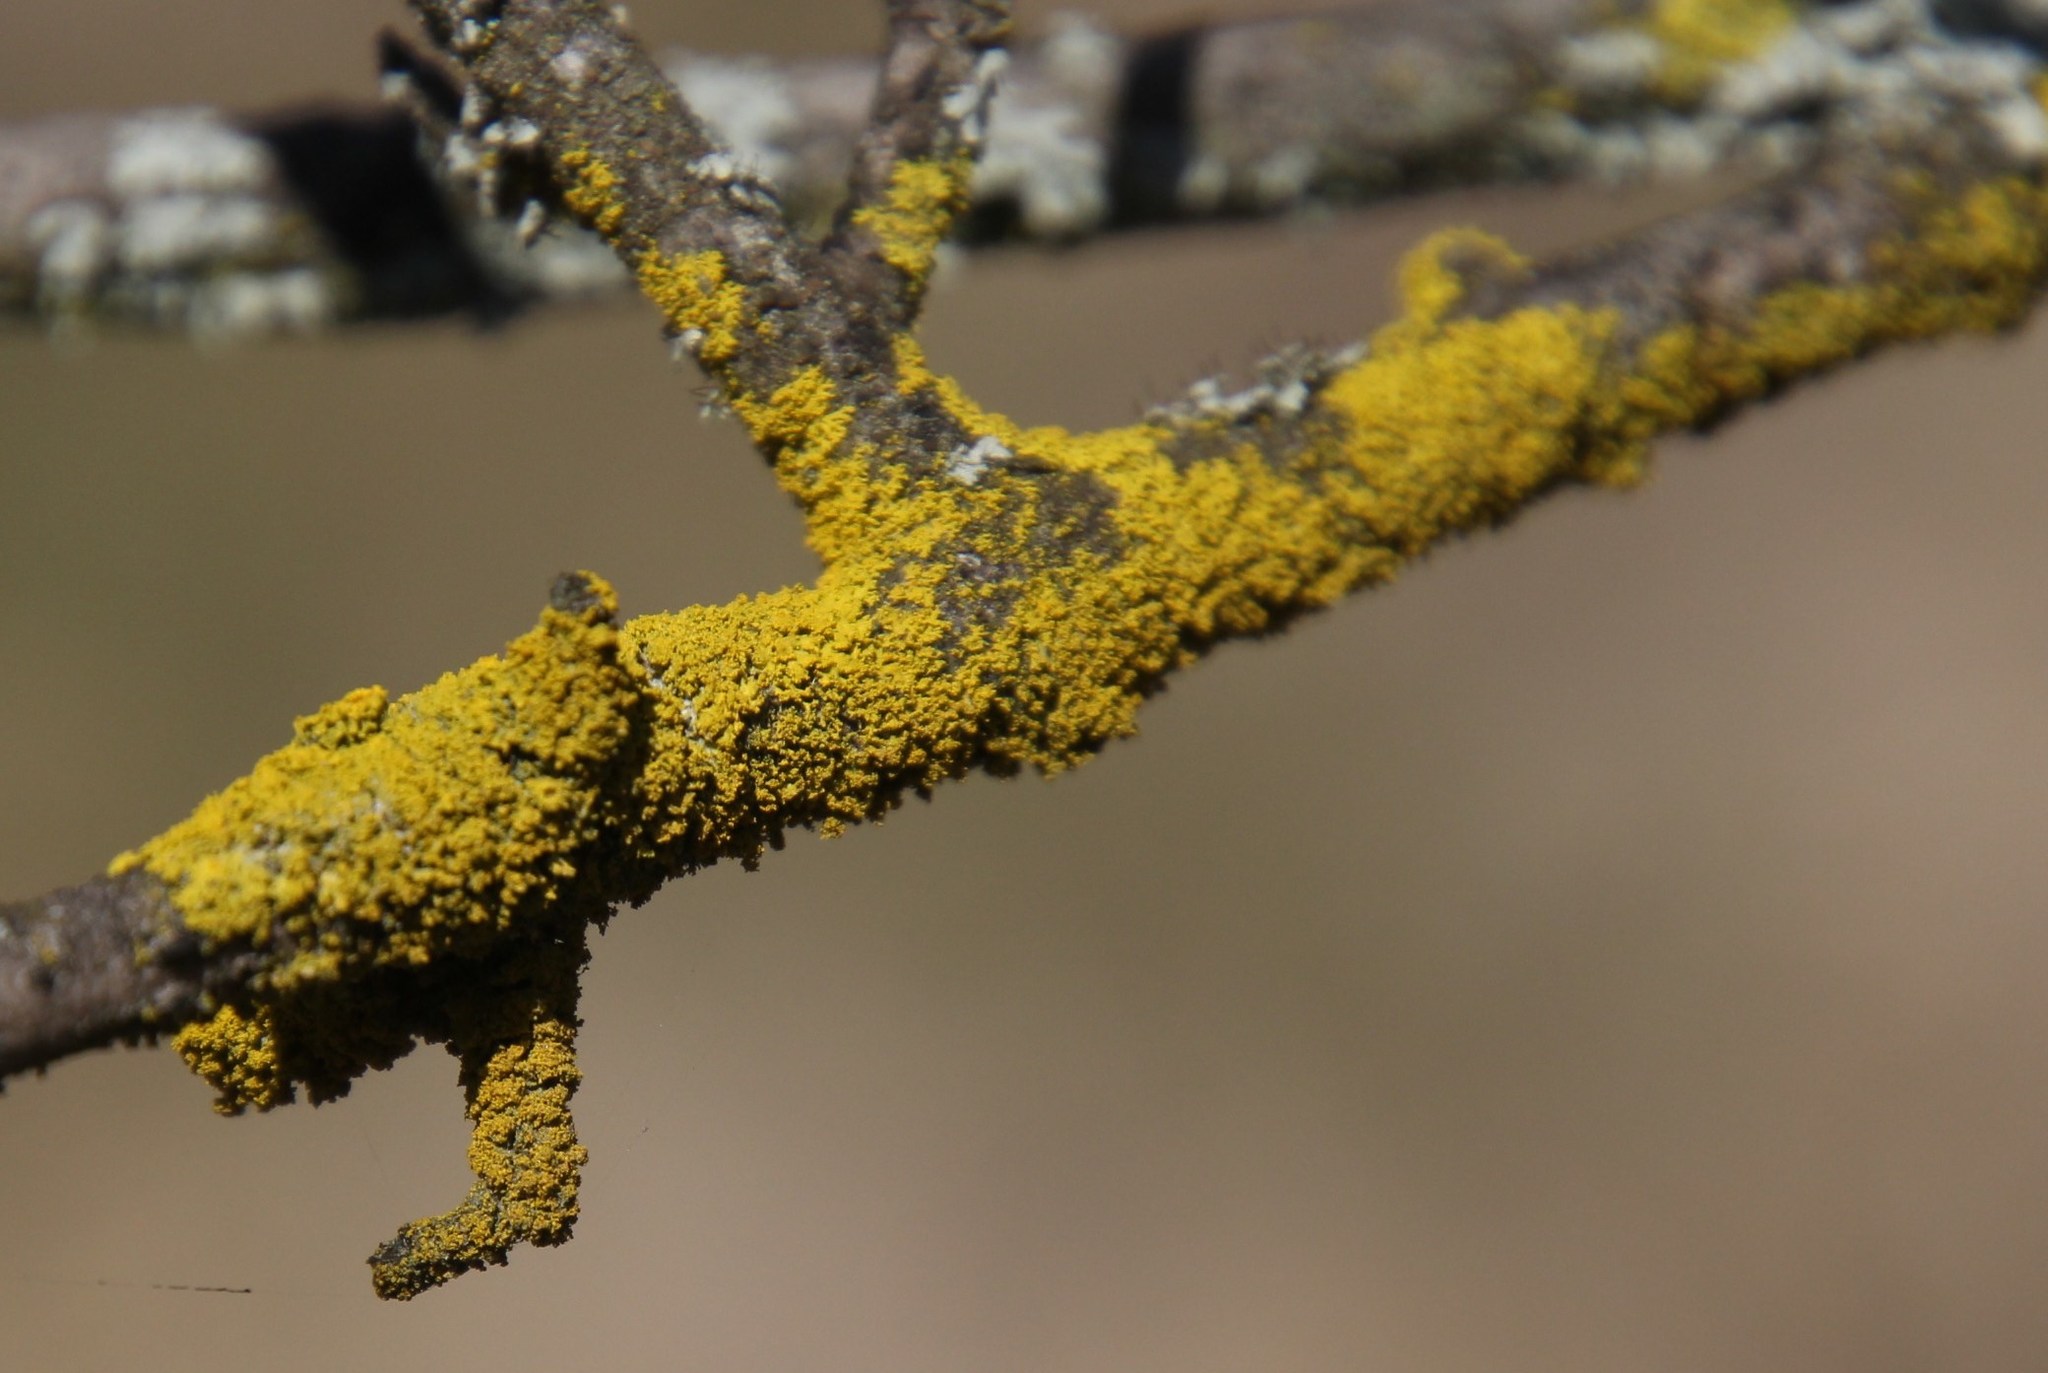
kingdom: Fungi
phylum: Ascomycota
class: Candelariomycetes
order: Candelariales
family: Candelariaceae
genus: Candelaria
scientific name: Candelaria concolor
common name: Candleflame lichen
